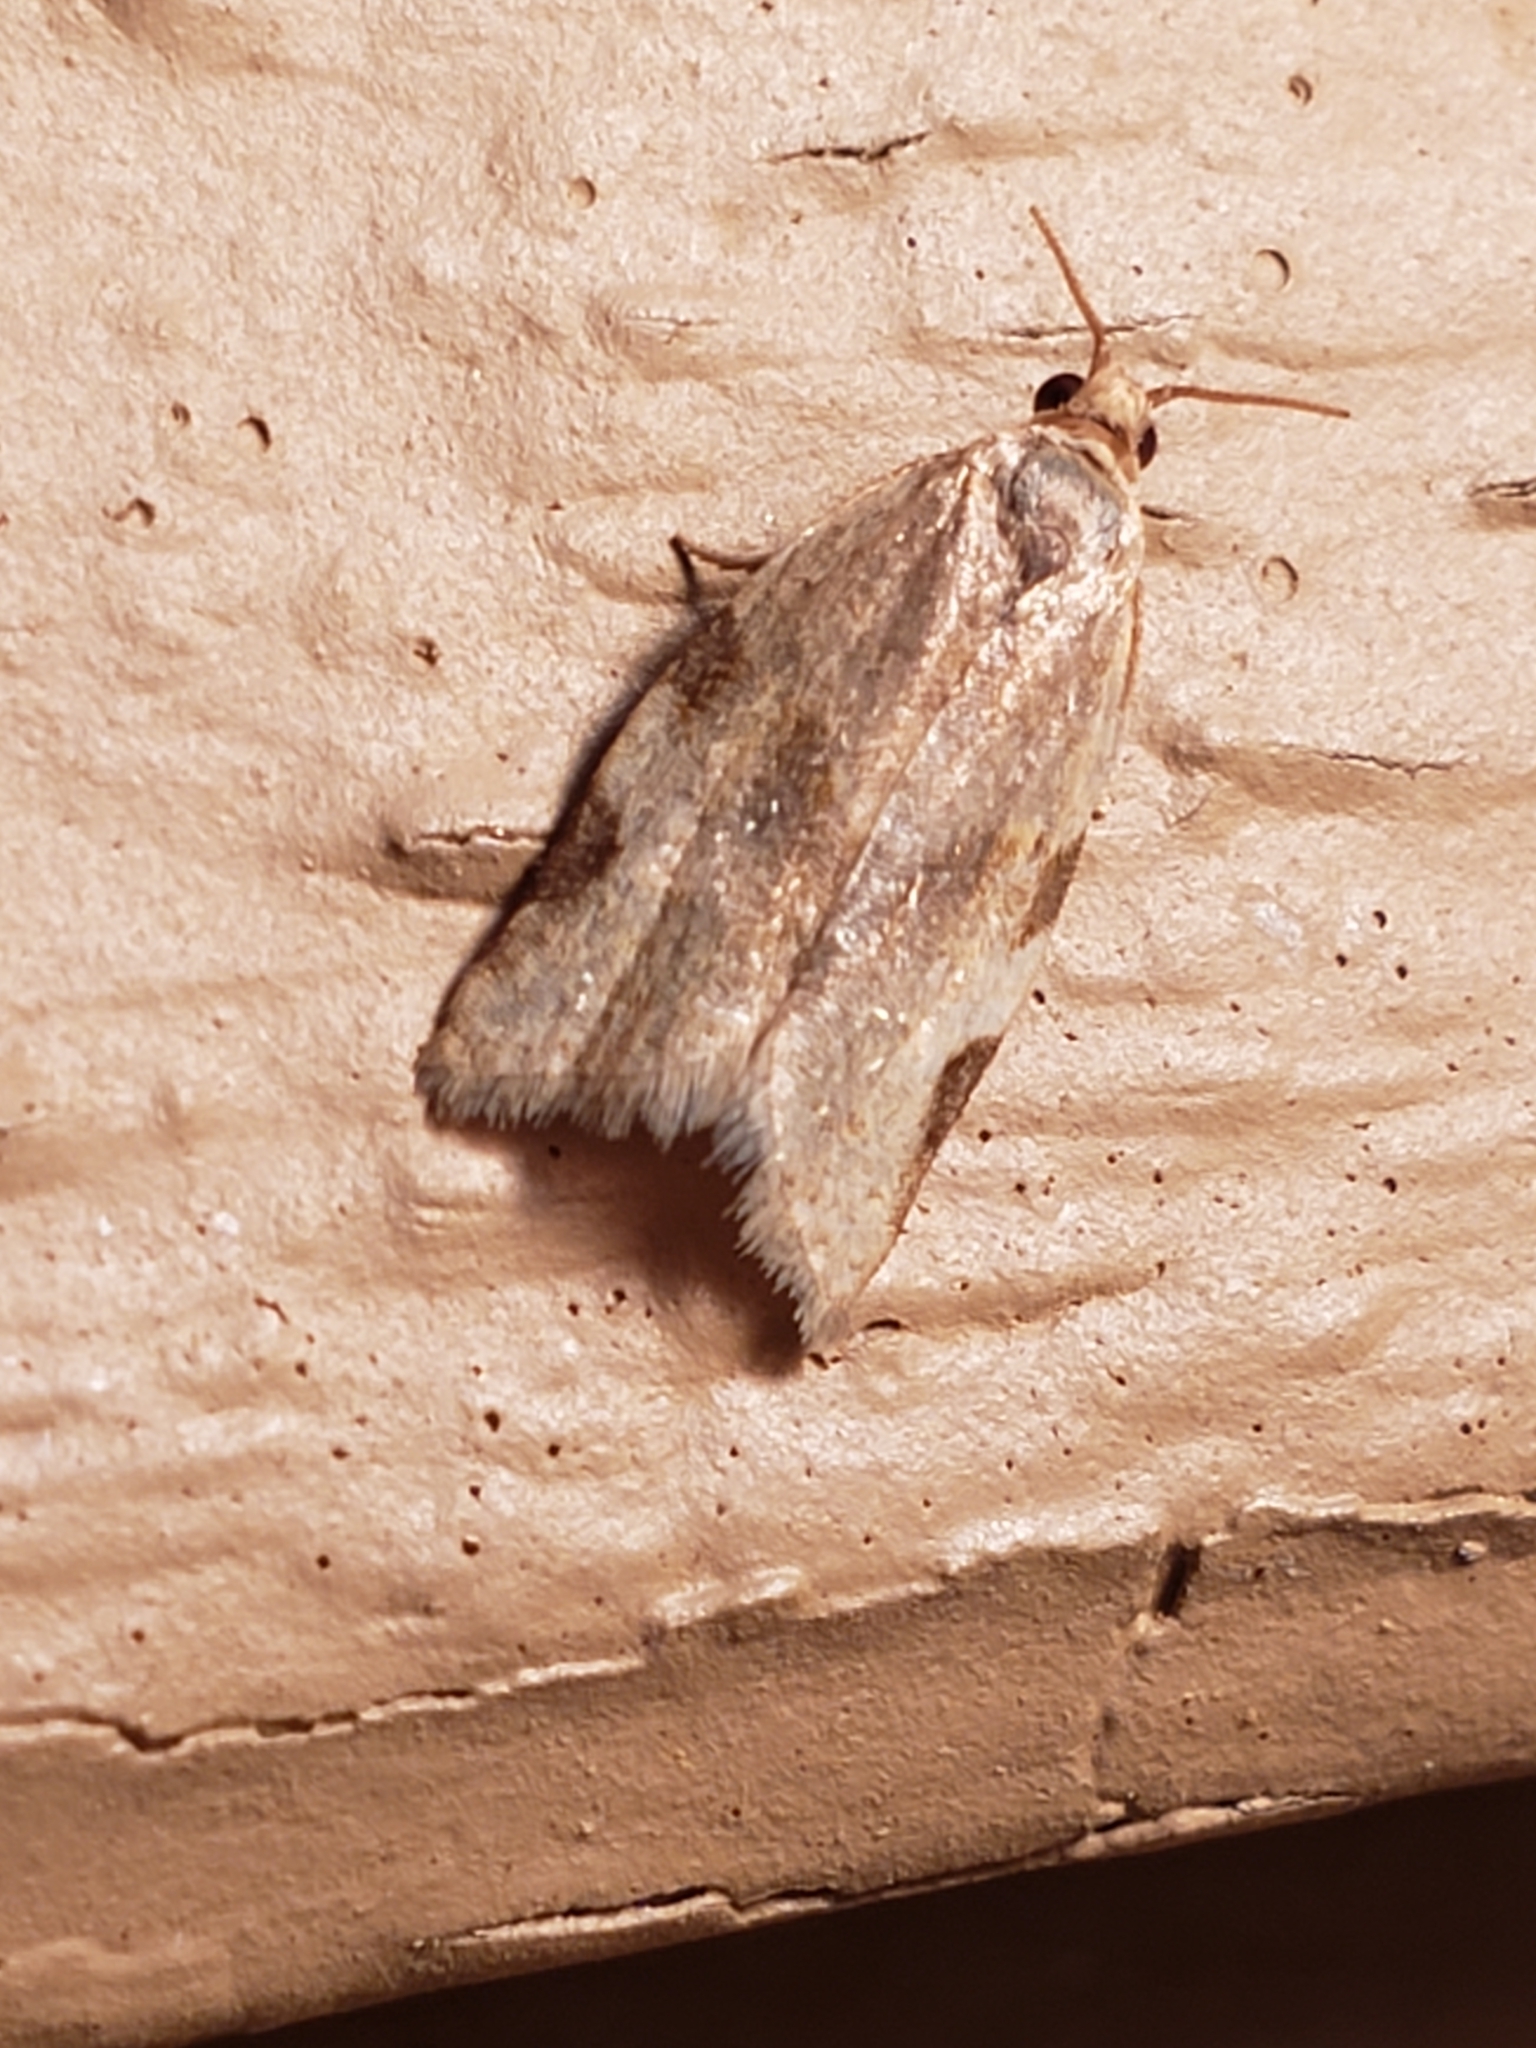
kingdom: Animalia
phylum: Arthropoda
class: Insecta
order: Lepidoptera
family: Tortricidae
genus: Clepsis
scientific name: Clepsis virescana
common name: Greenish apple moth
